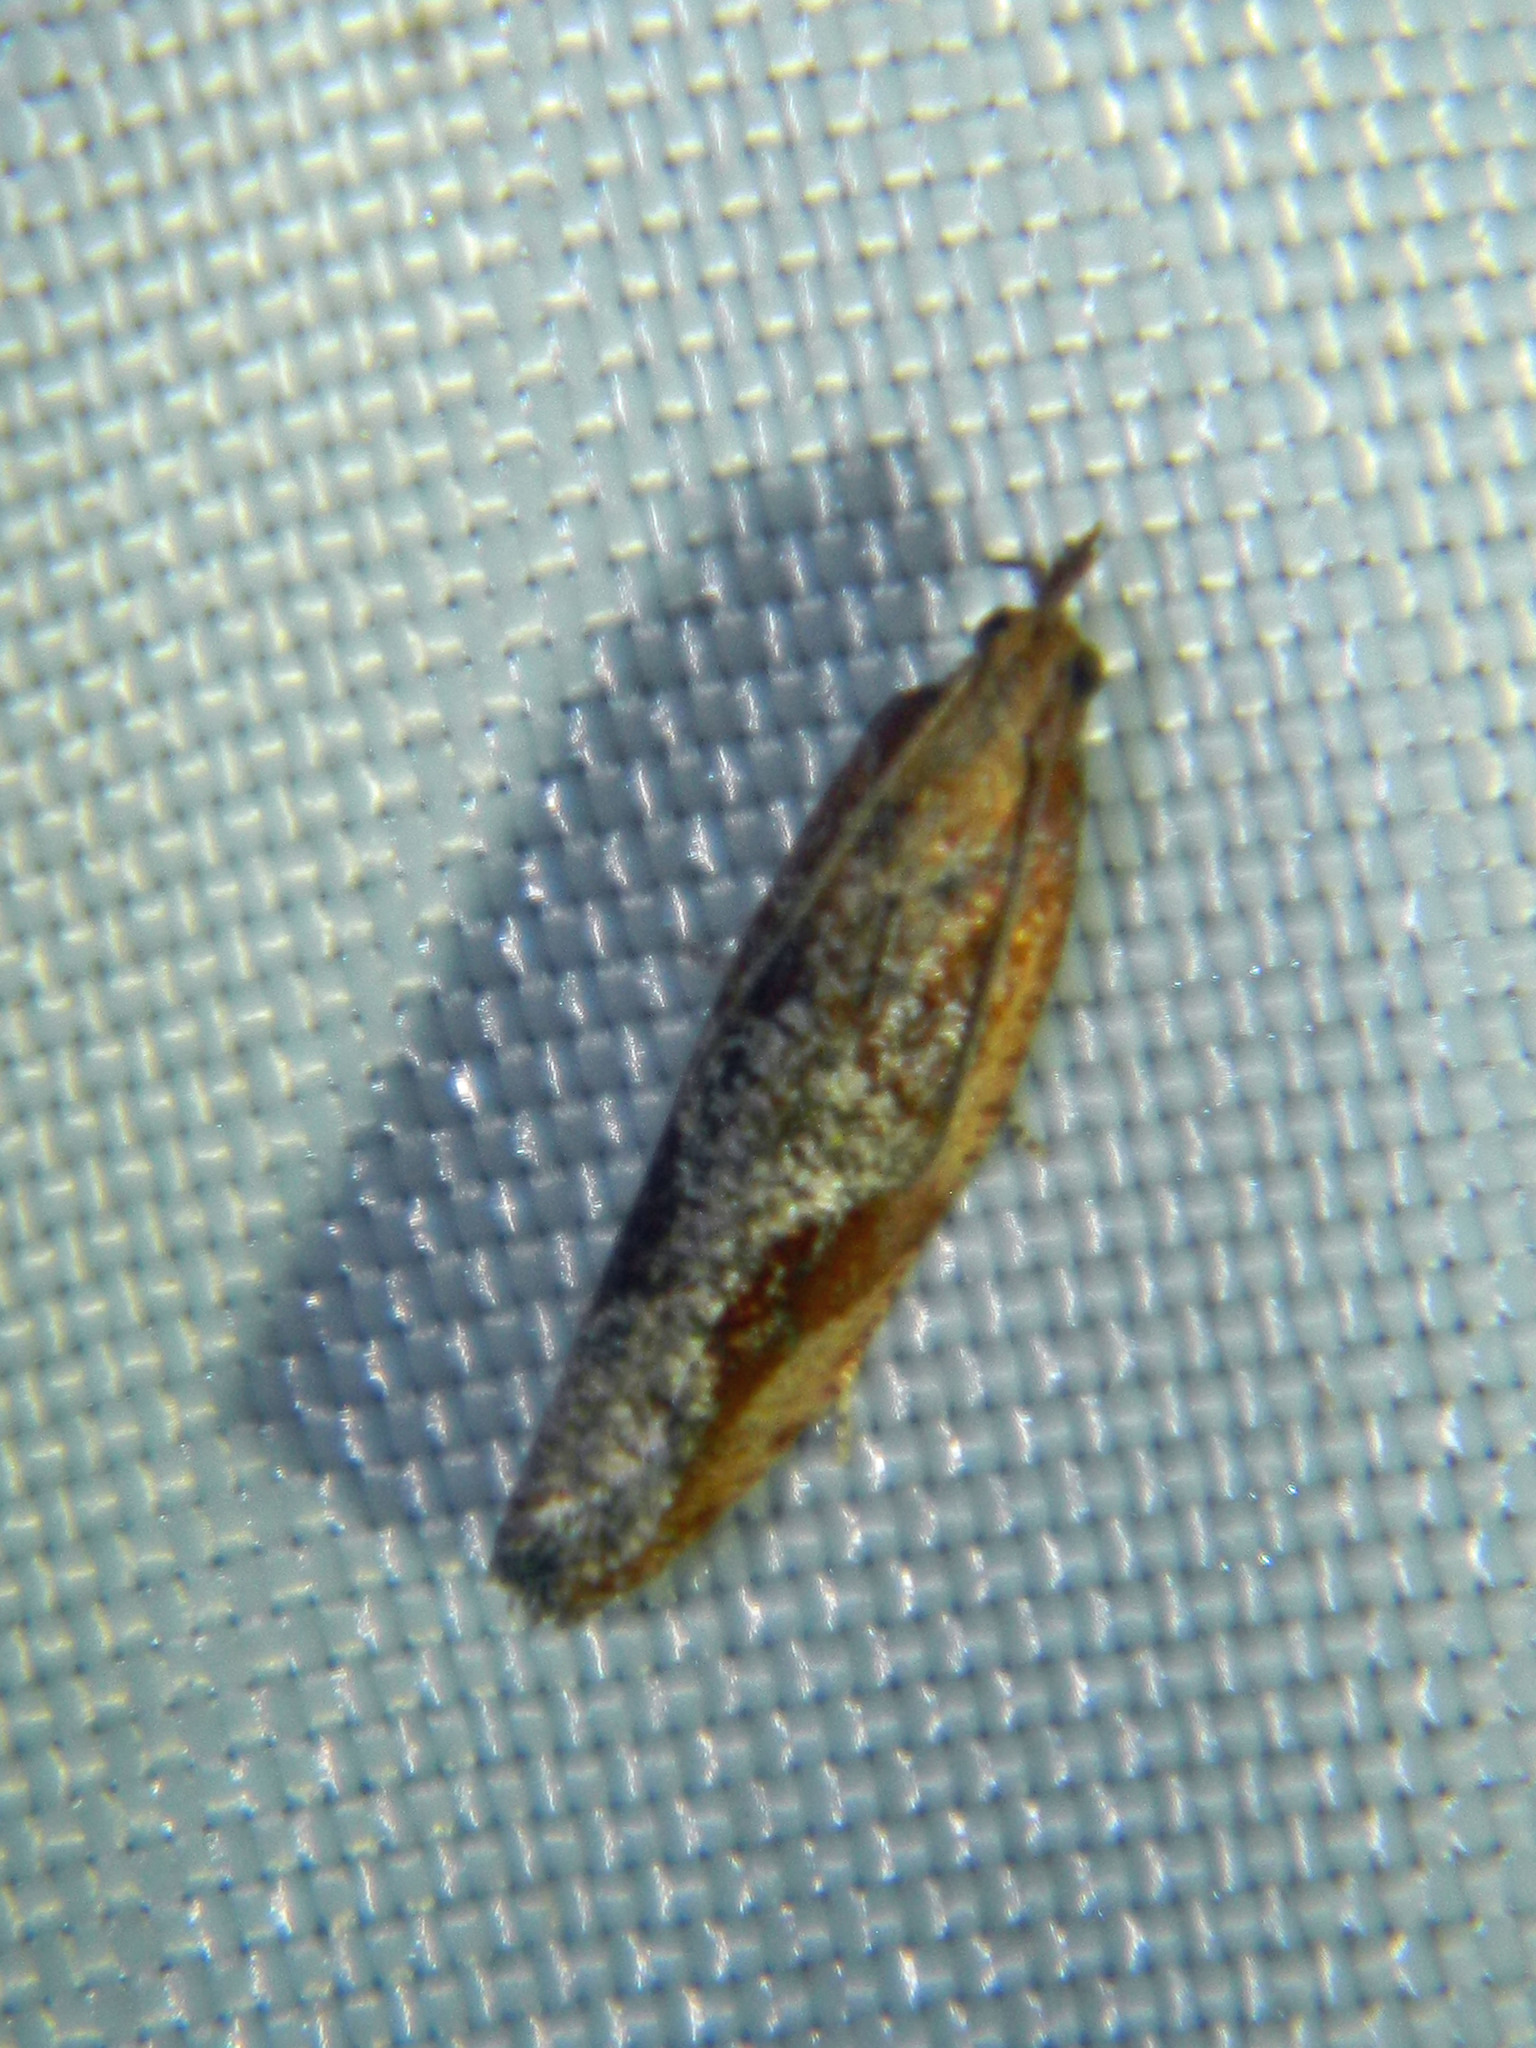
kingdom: Animalia
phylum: Arthropoda
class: Insecta
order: Lepidoptera
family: Tortricidae
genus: Epinotia
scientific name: Epinotia septemberana
